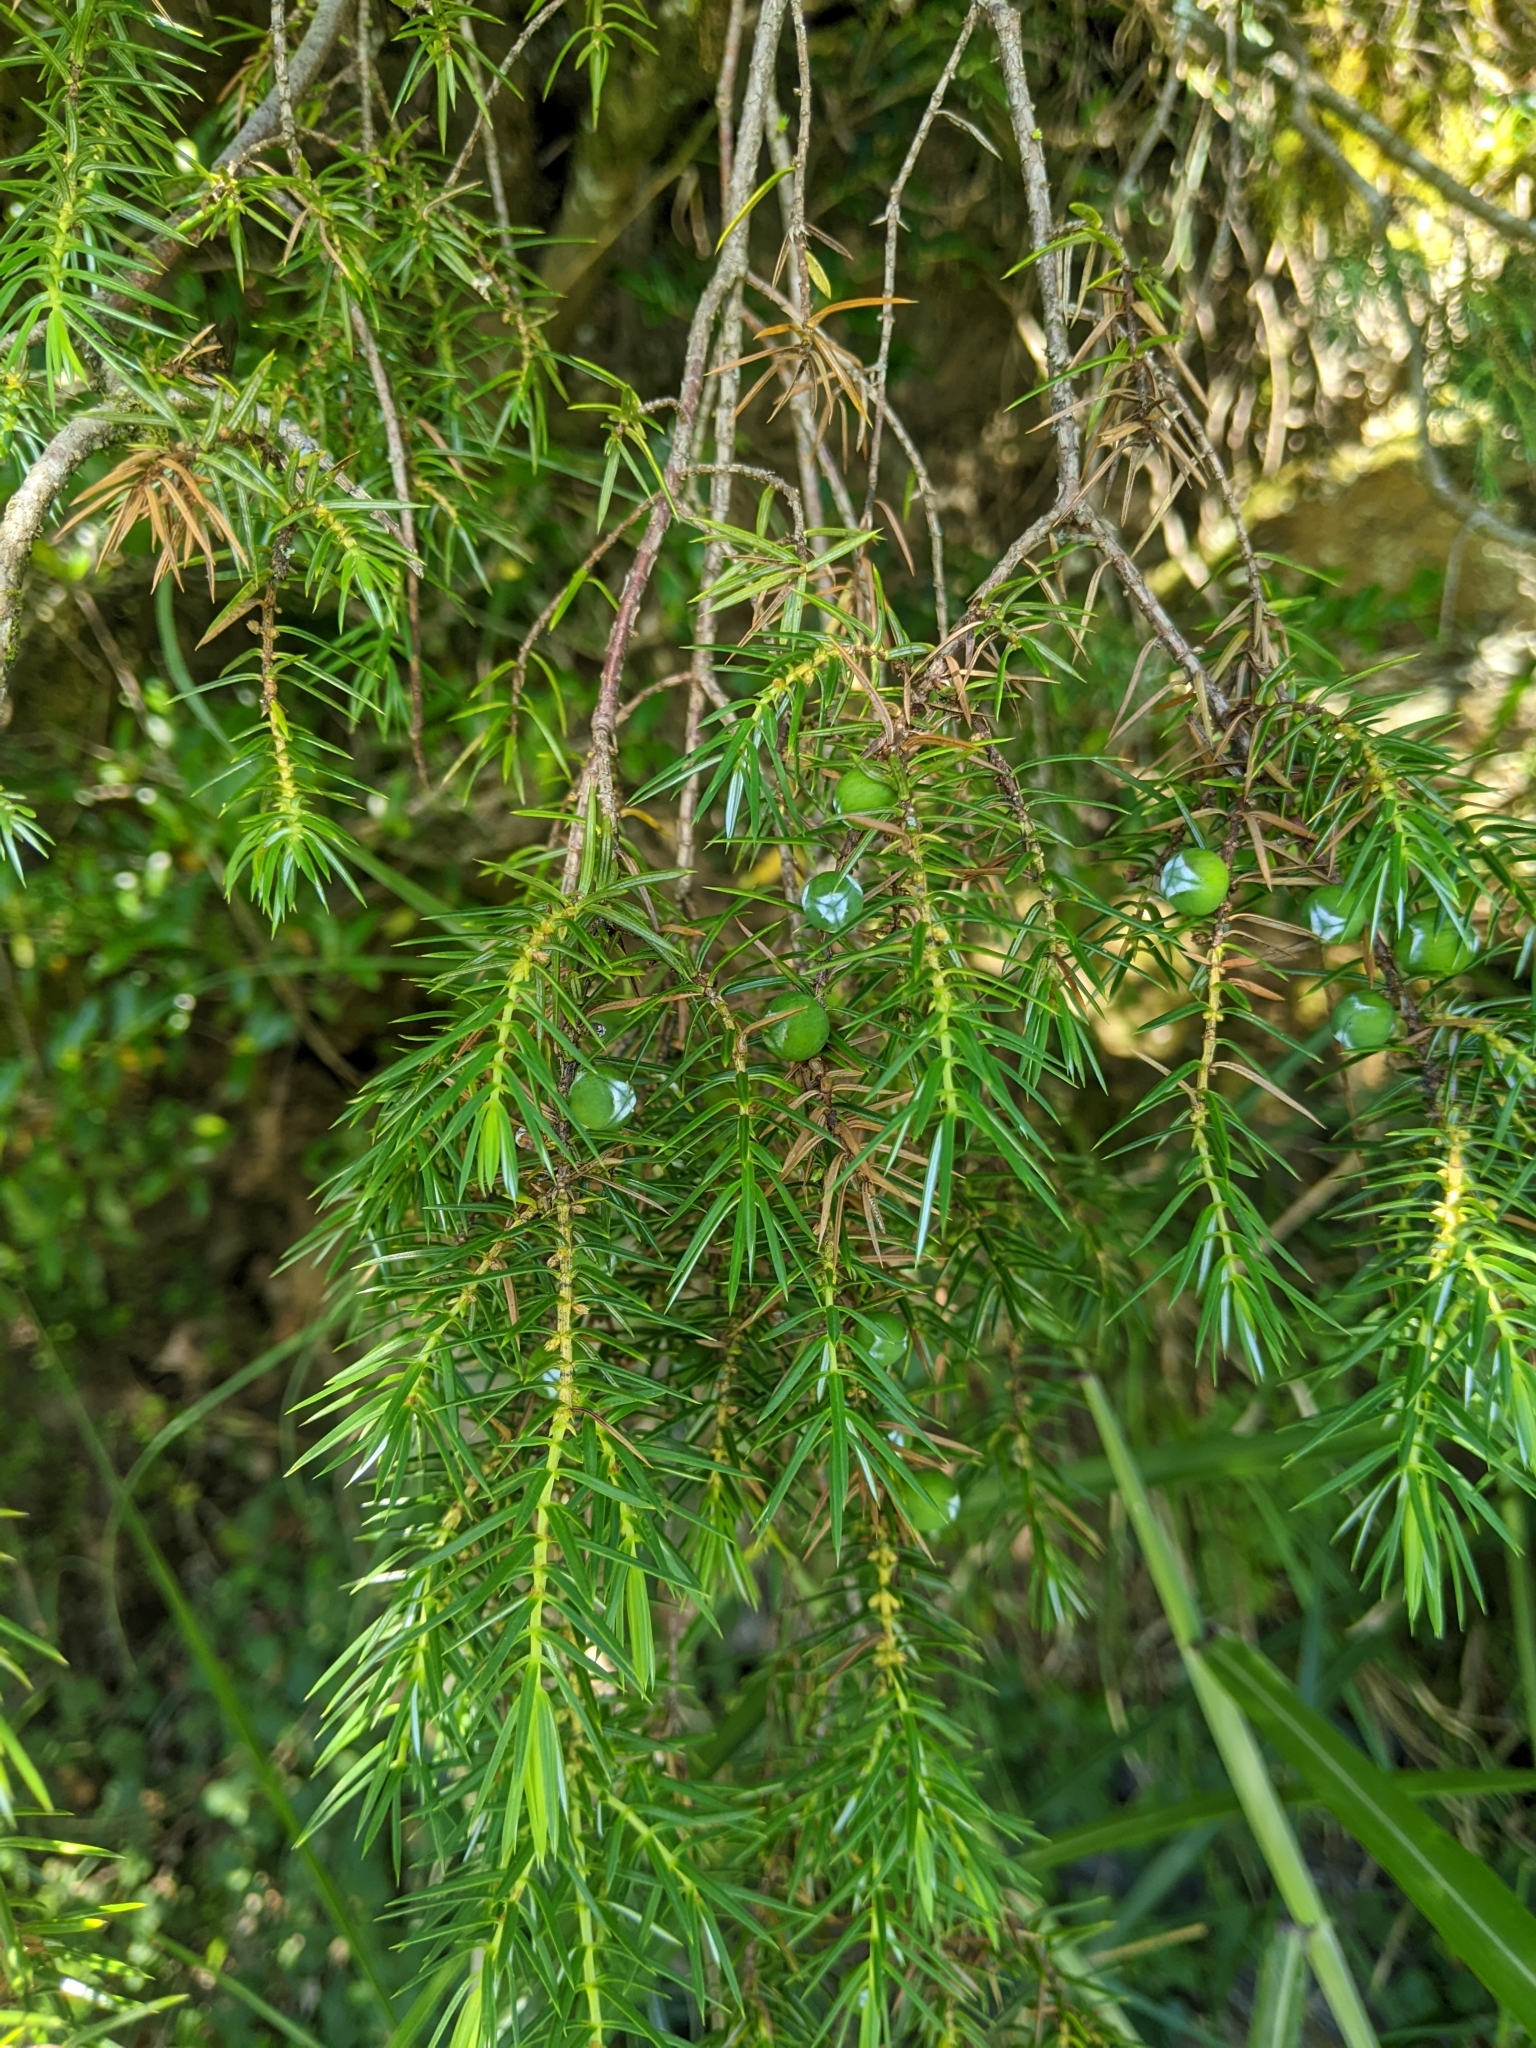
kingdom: Plantae
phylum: Tracheophyta
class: Pinopsida
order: Pinales
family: Cupressaceae
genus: Juniperus
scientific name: Juniperus formosana
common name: Formosan juniper
